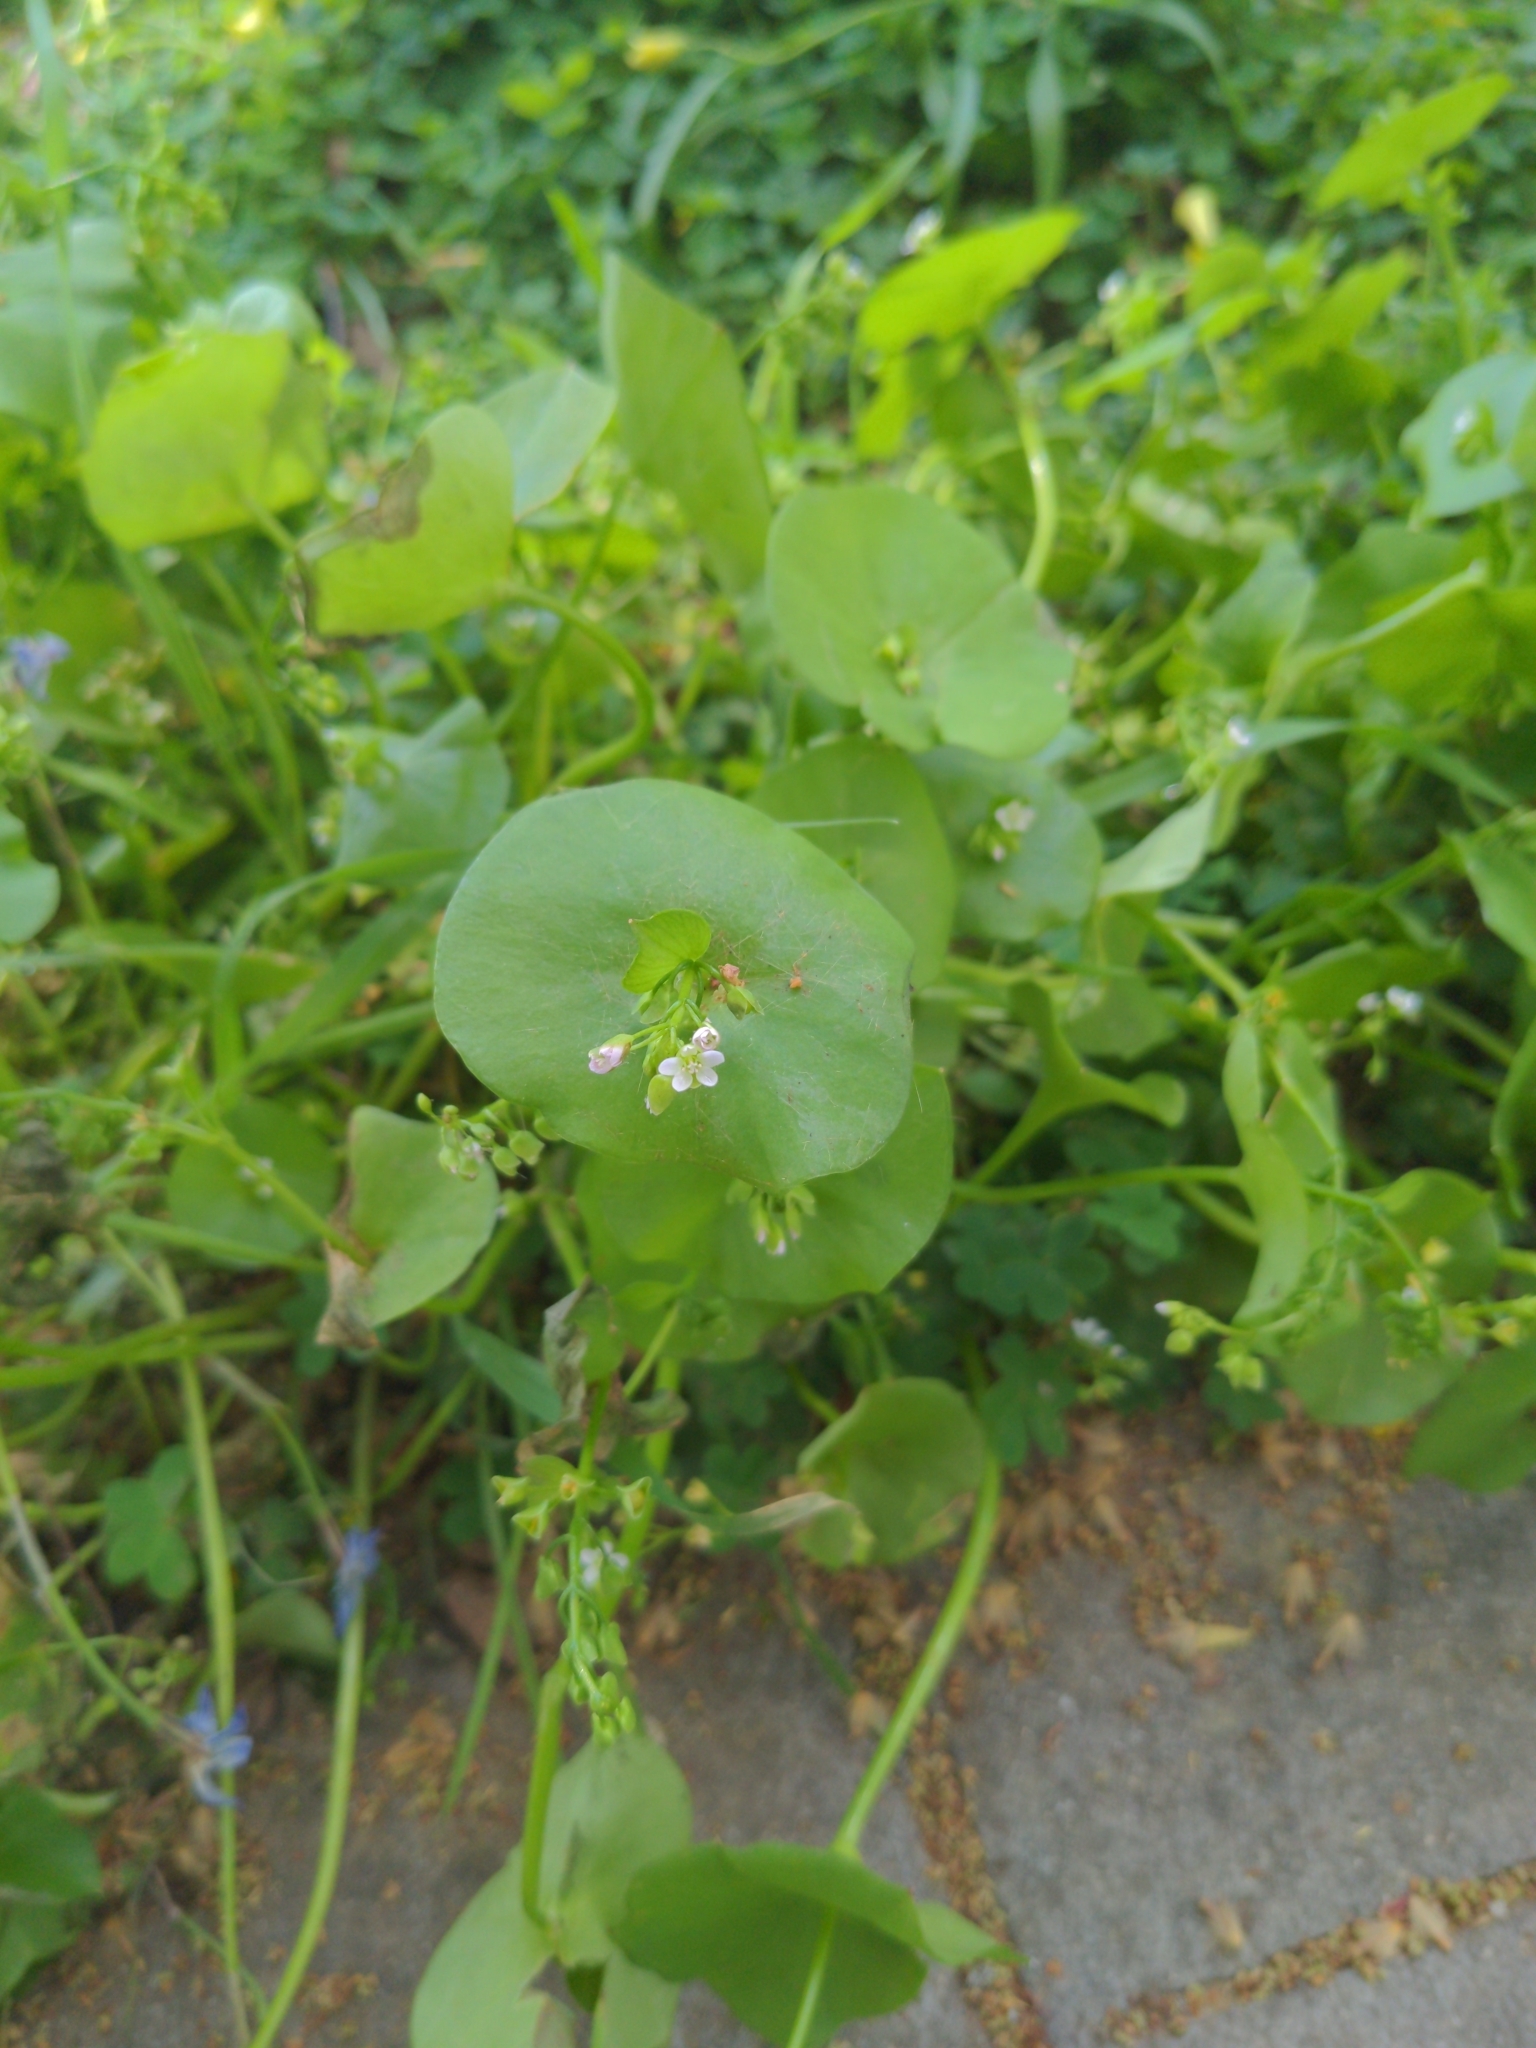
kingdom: Plantae
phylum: Tracheophyta
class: Magnoliopsida
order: Caryophyllales
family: Montiaceae
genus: Claytonia
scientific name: Claytonia perfoliata
